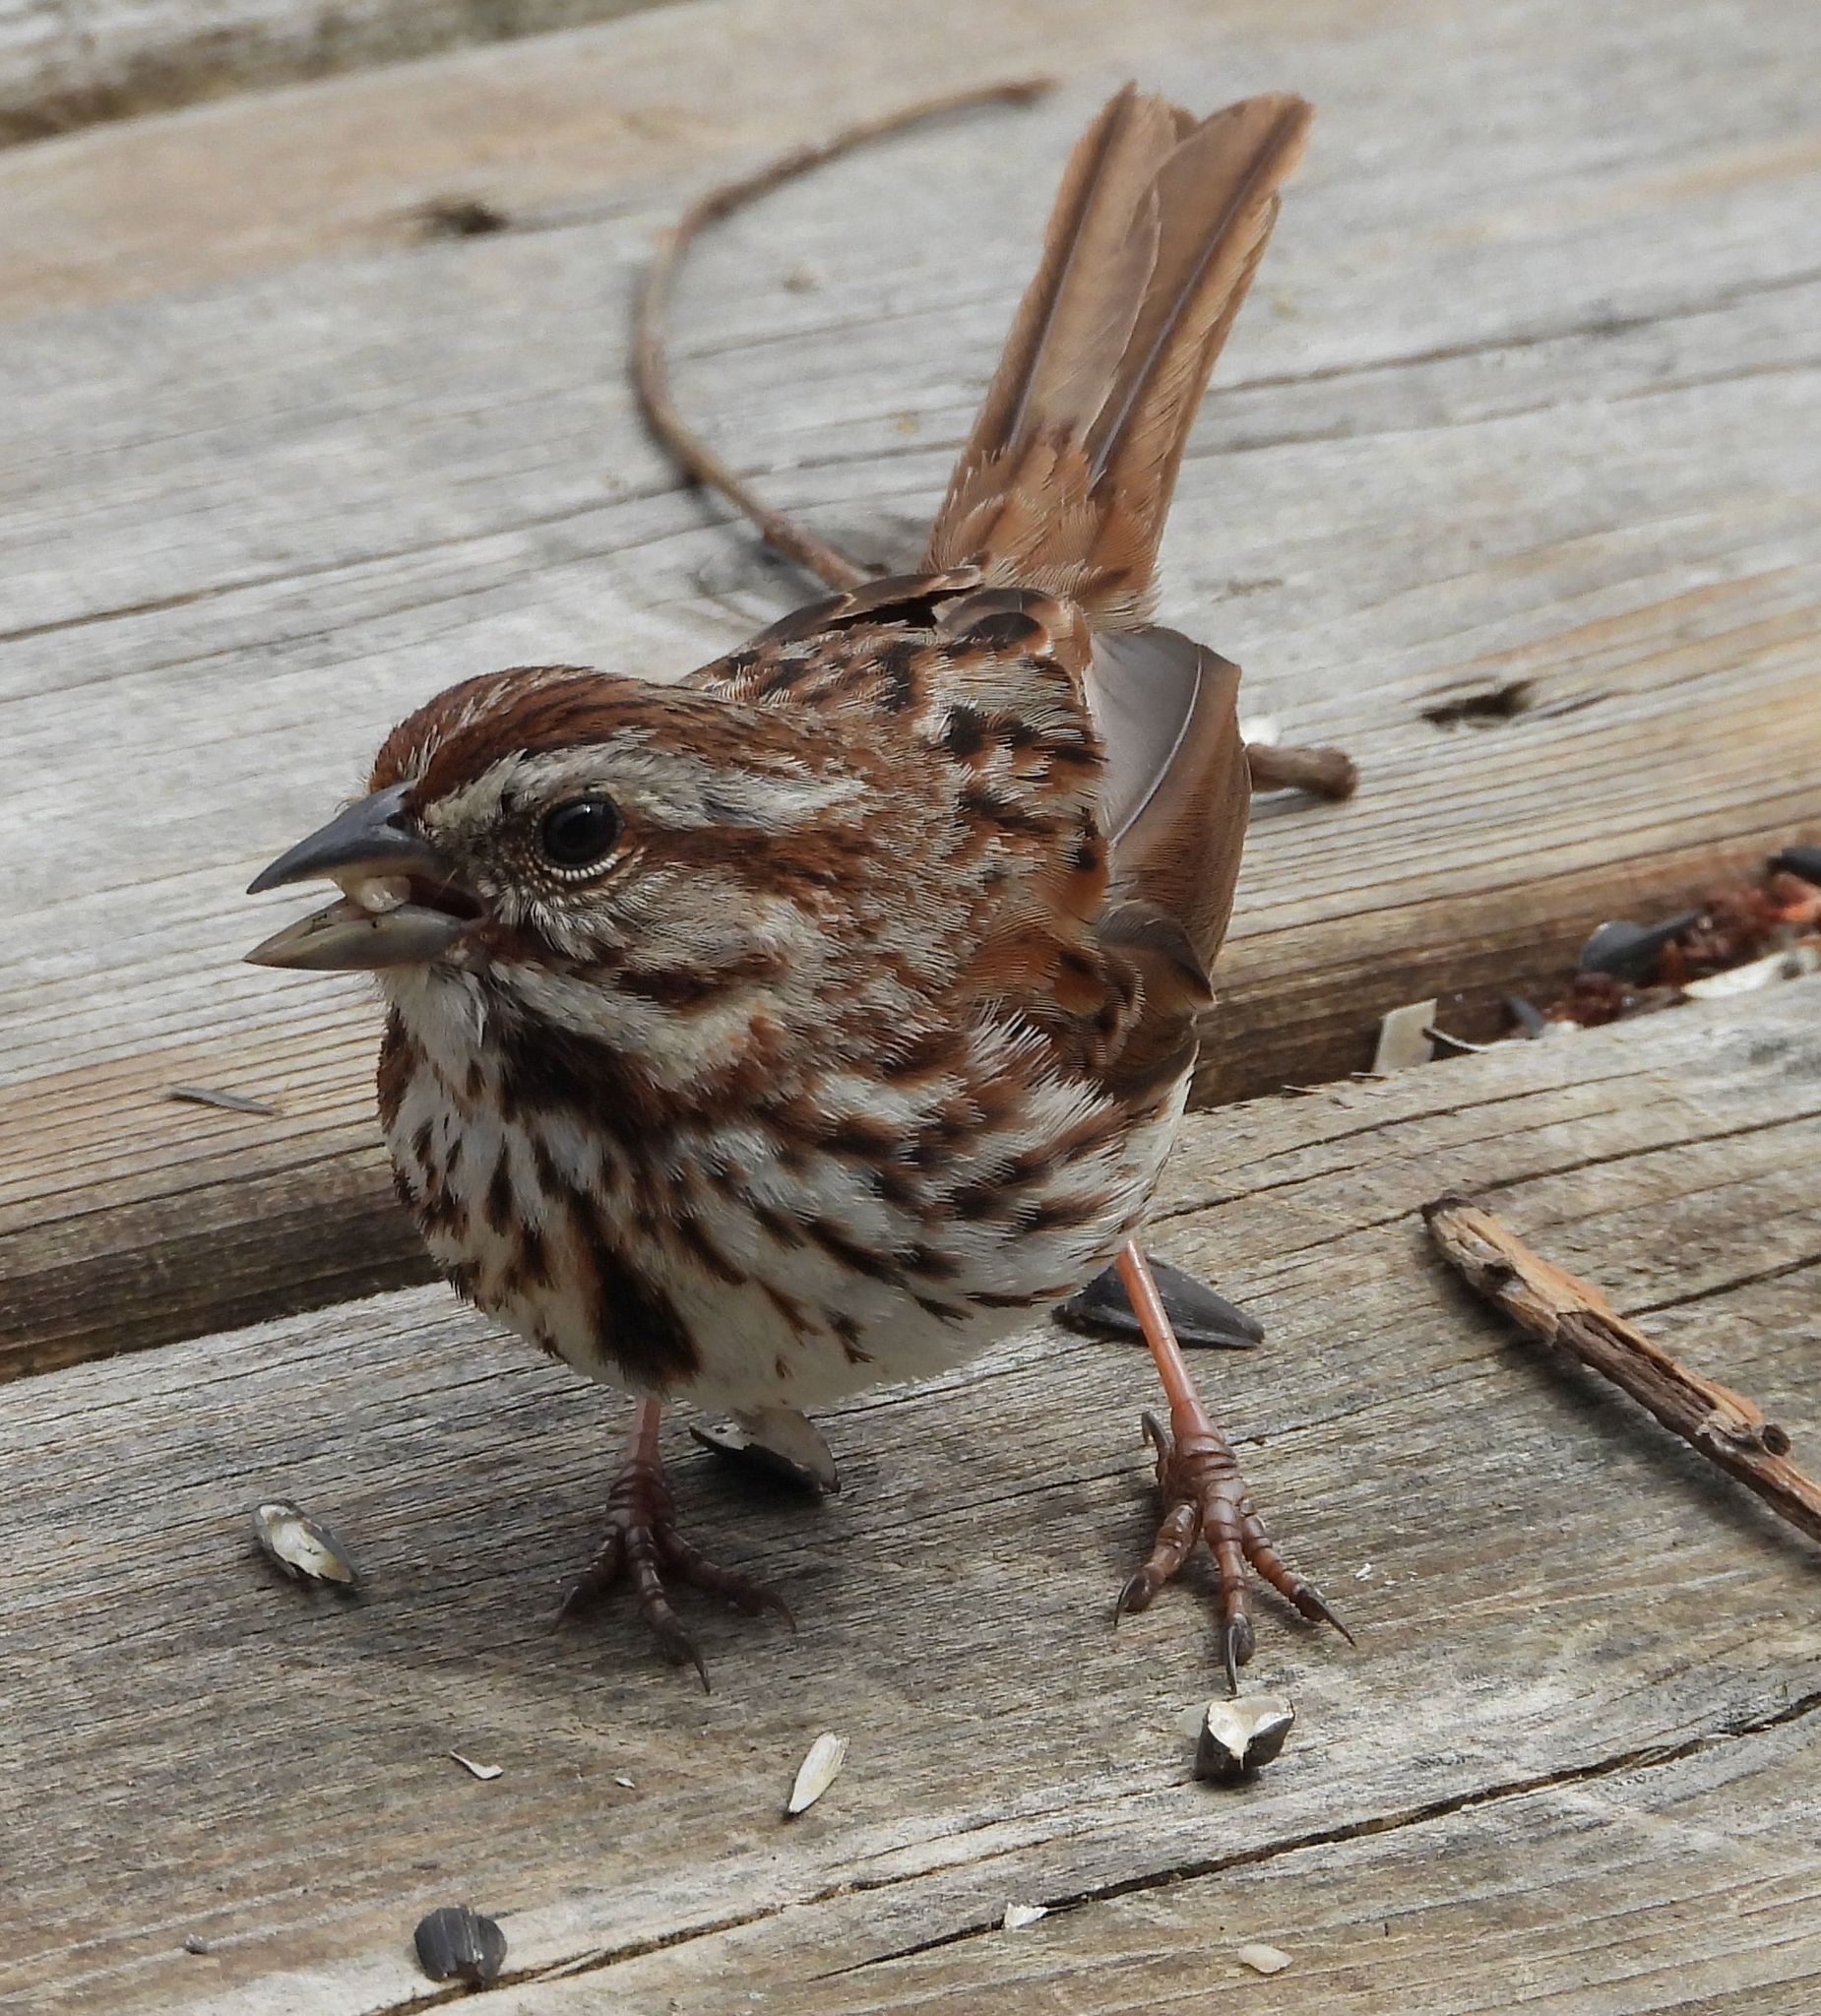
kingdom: Animalia
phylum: Chordata
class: Aves
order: Passeriformes
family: Passerellidae
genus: Melospiza
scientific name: Melospiza melodia
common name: Song sparrow
